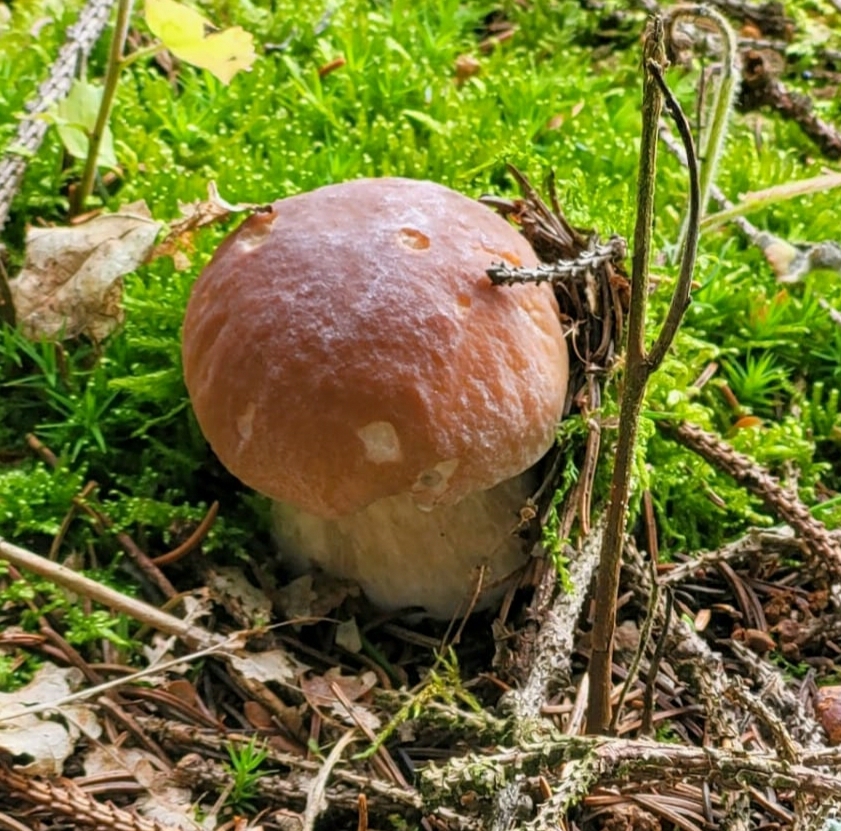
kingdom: Fungi
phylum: Basidiomycota
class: Agaricomycetes
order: Boletales
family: Boletaceae
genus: Boletus
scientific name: Boletus edulis
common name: Cep
